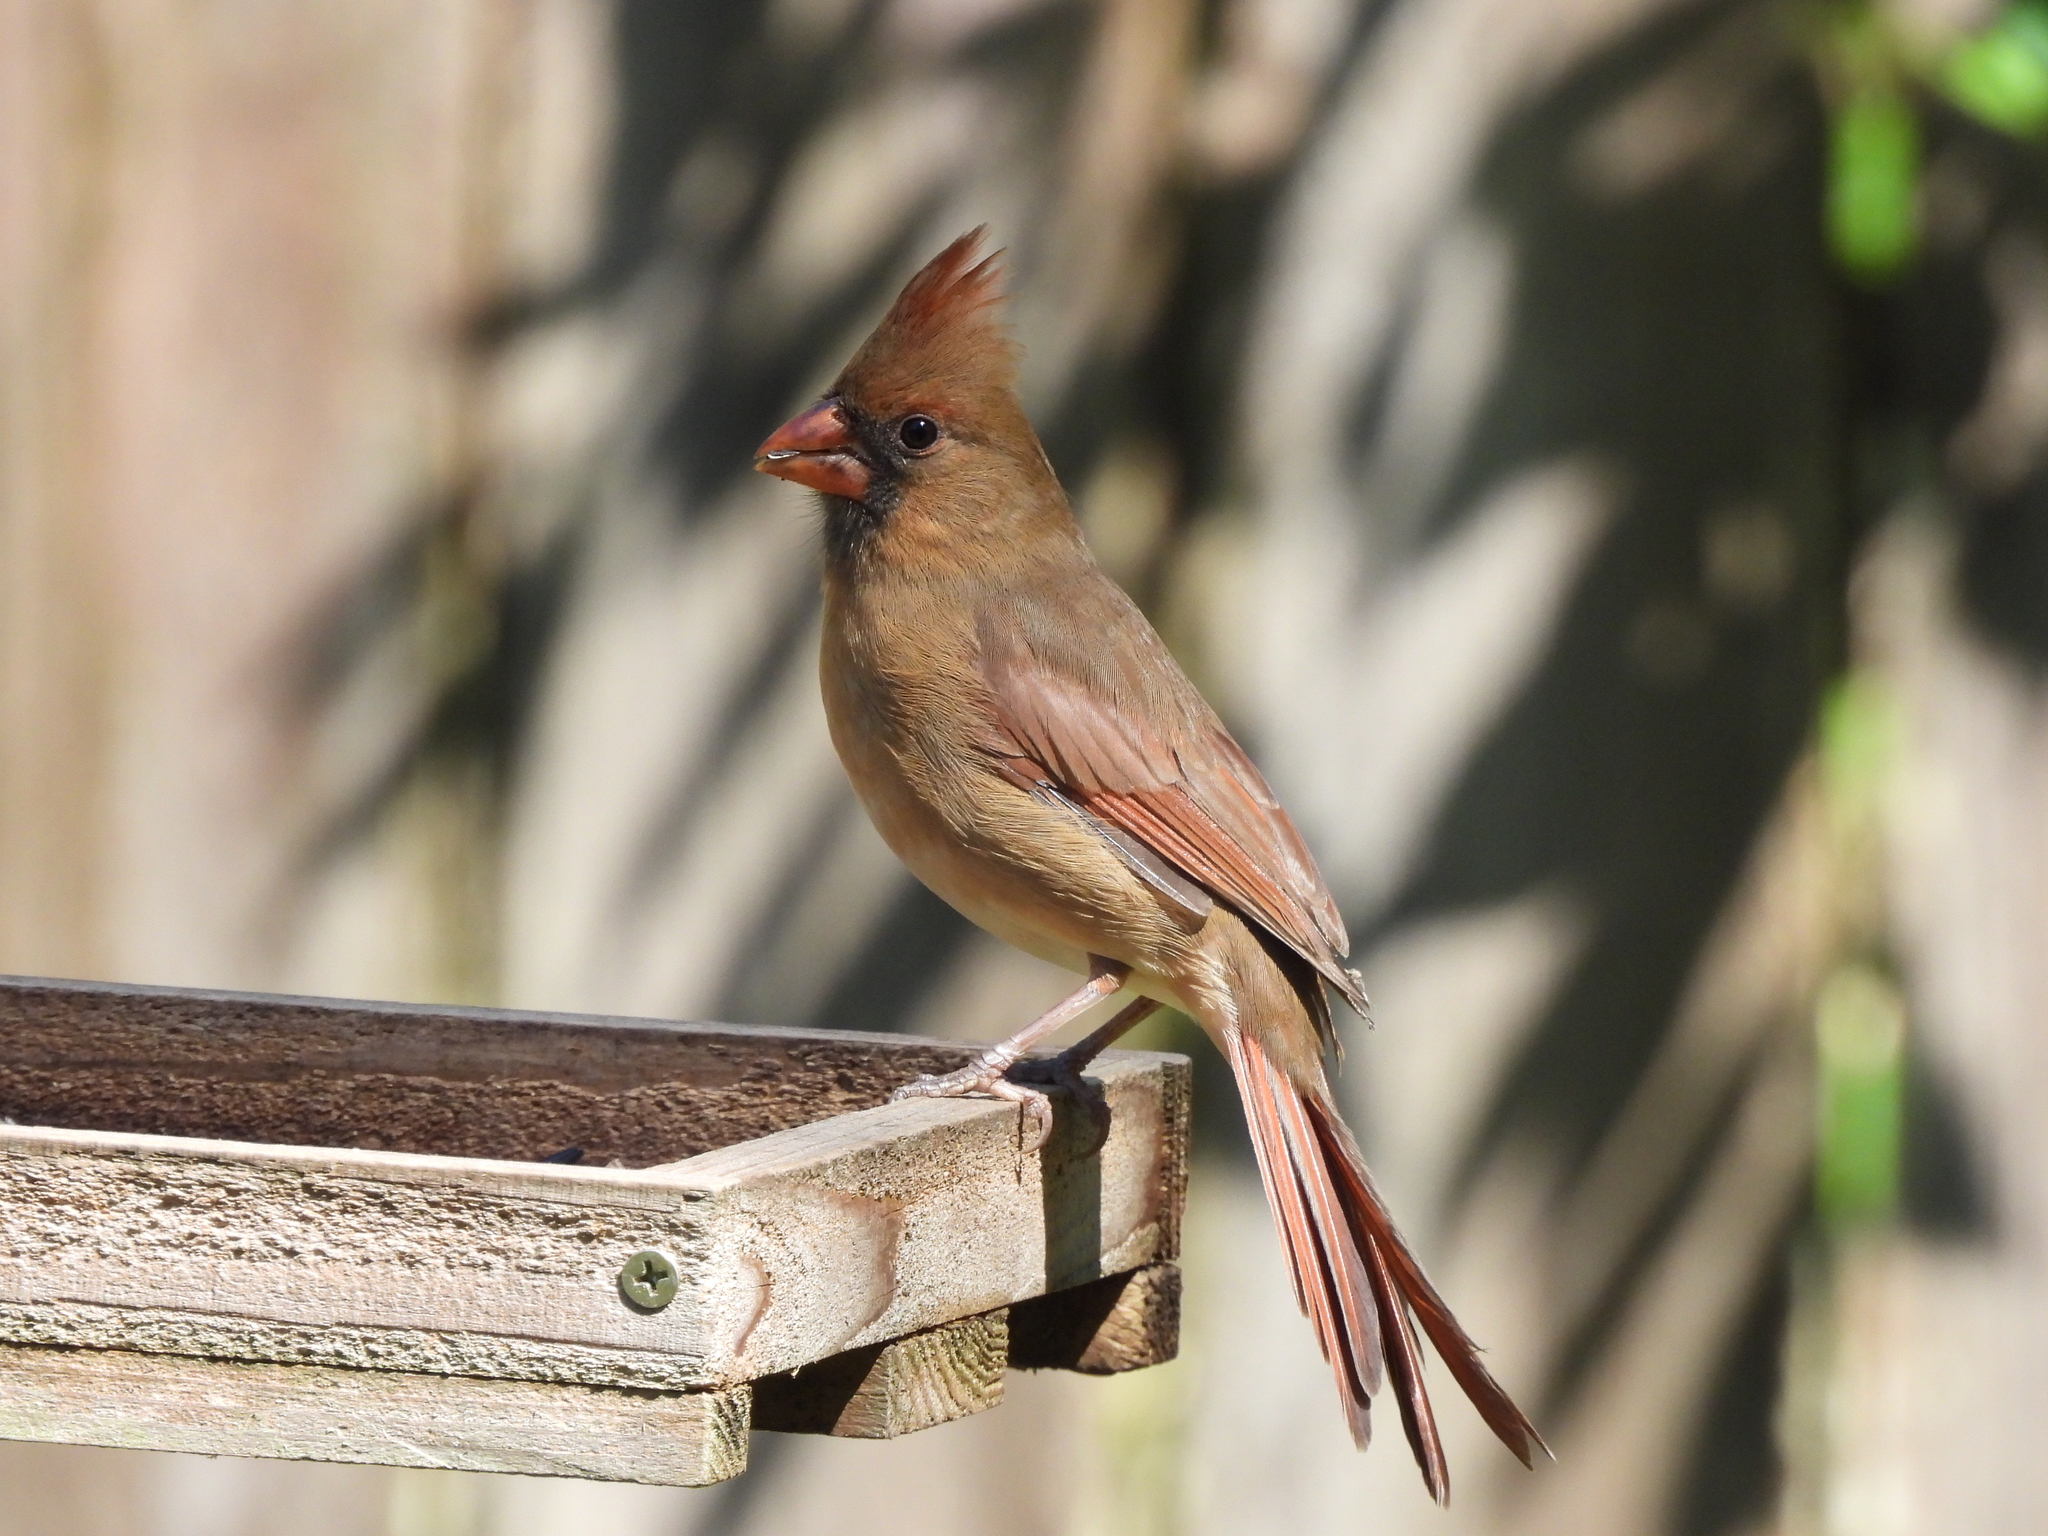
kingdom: Animalia
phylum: Chordata
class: Aves
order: Passeriformes
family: Cardinalidae
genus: Cardinalis
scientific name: Cardinalis cardinalis
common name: Northern cardinal
